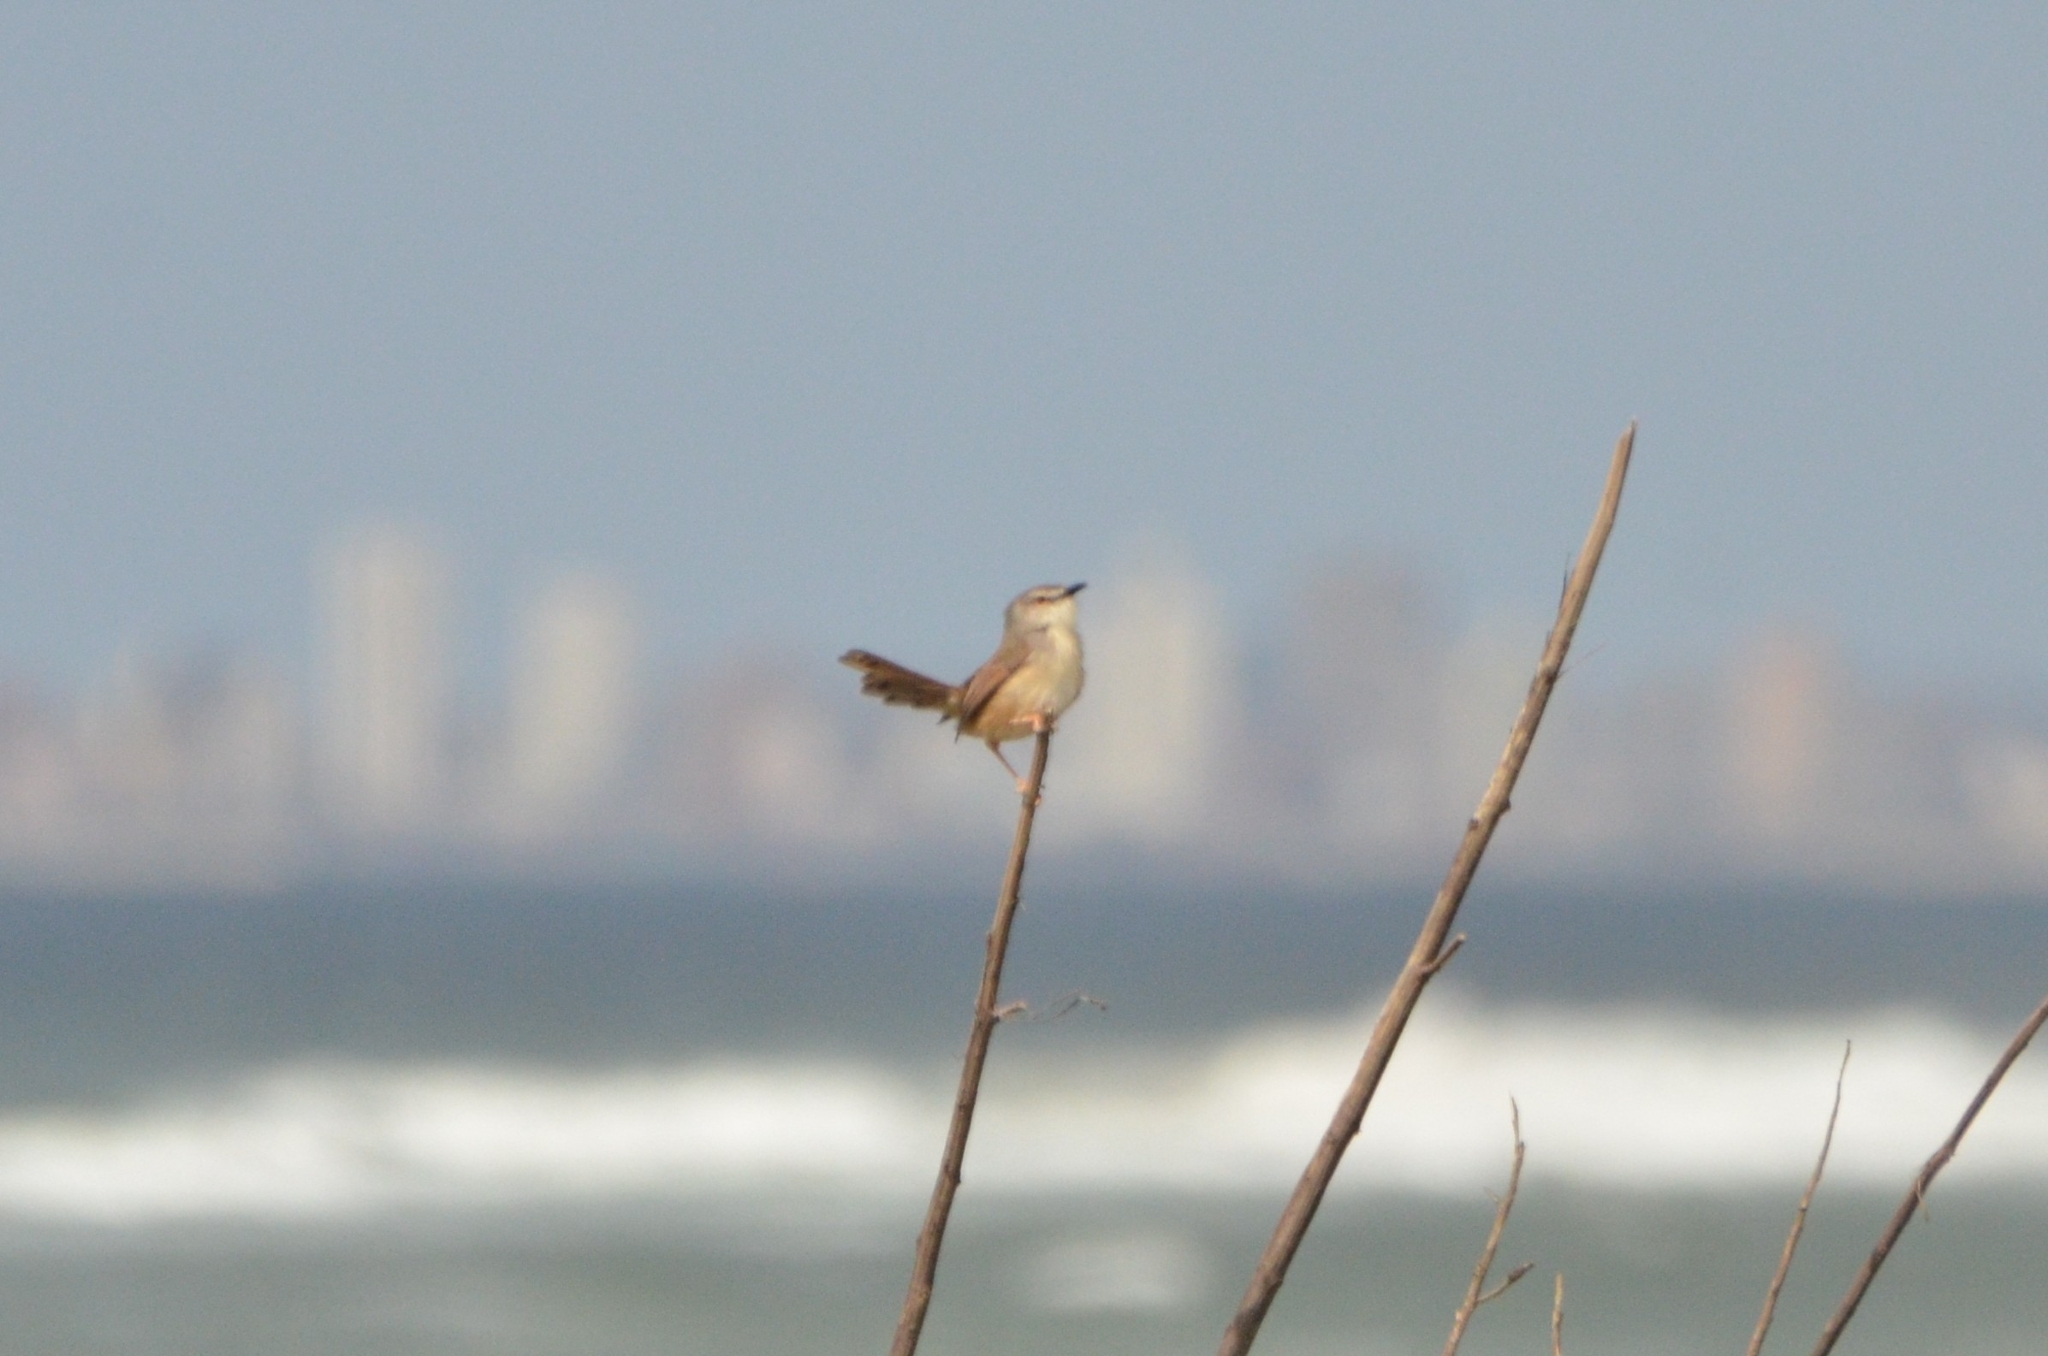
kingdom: Animalia
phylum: Chordata
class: Aves
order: Passeriformes
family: Cisticolidae
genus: Prinia
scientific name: Prinia subflava
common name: Tawny-flanked prinia
